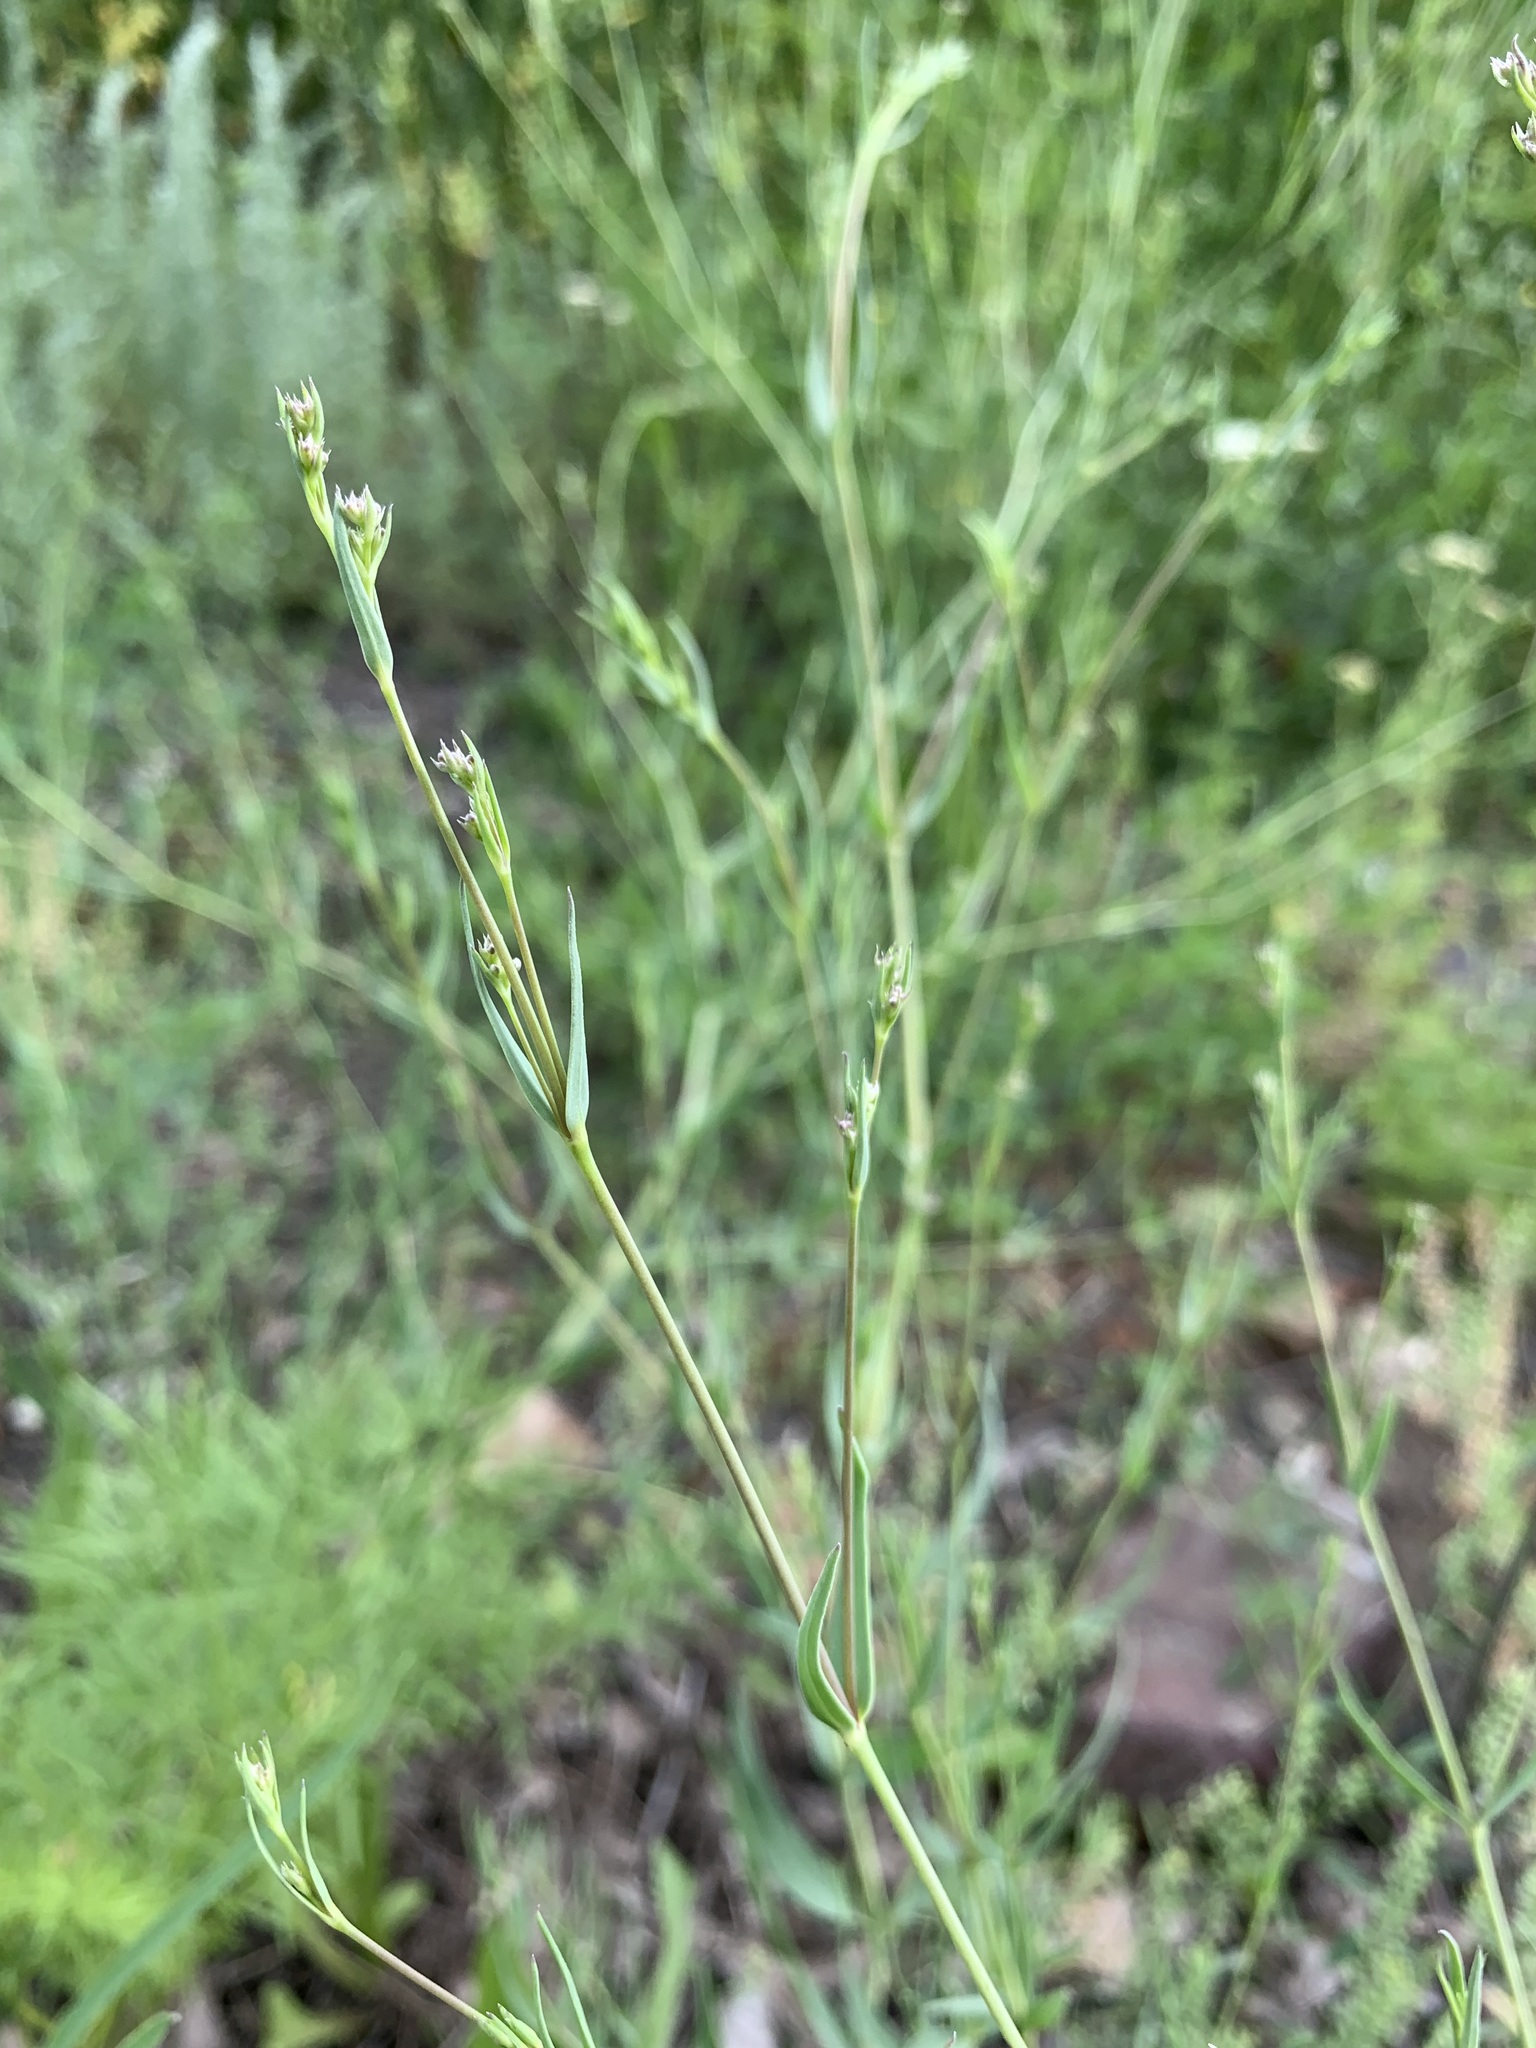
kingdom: Plantae
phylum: Tracheophyta
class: Magnoliopsida
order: Caryophyllales
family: Caryophyllaceae
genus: Gypsophila
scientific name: Gypsophila paniculata
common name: Baby's-breath
